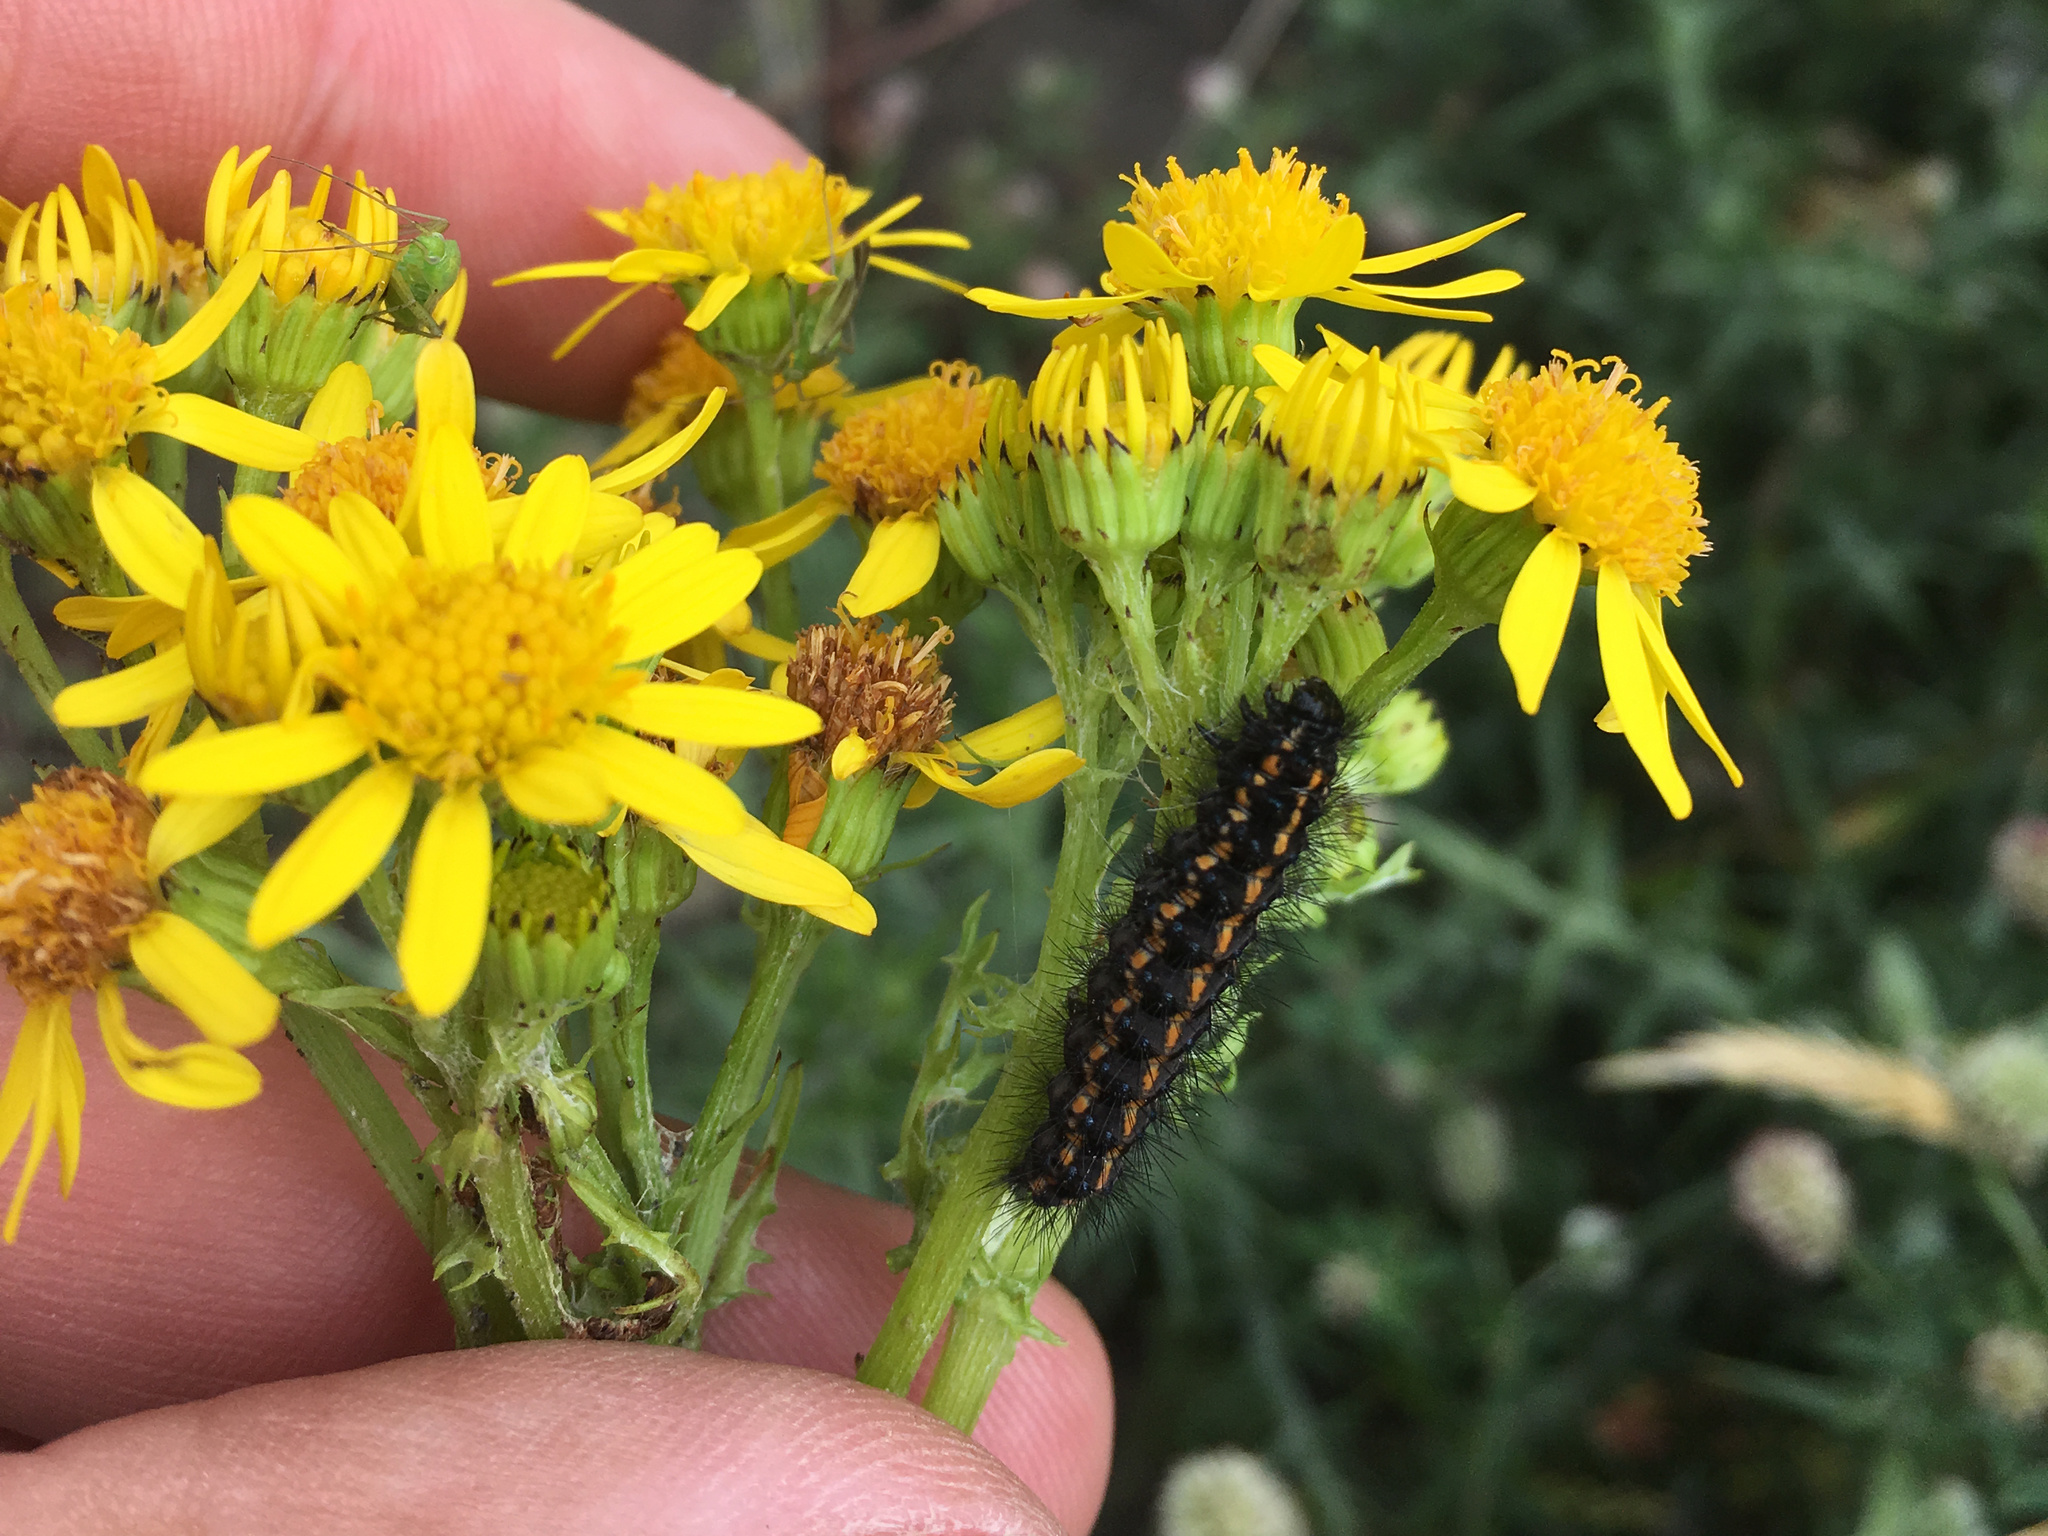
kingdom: Animalia
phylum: Arthropoda
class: Insecta
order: Lepidoptera
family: Erebidae
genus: Nyctemera
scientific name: Nyctemera annulatum
